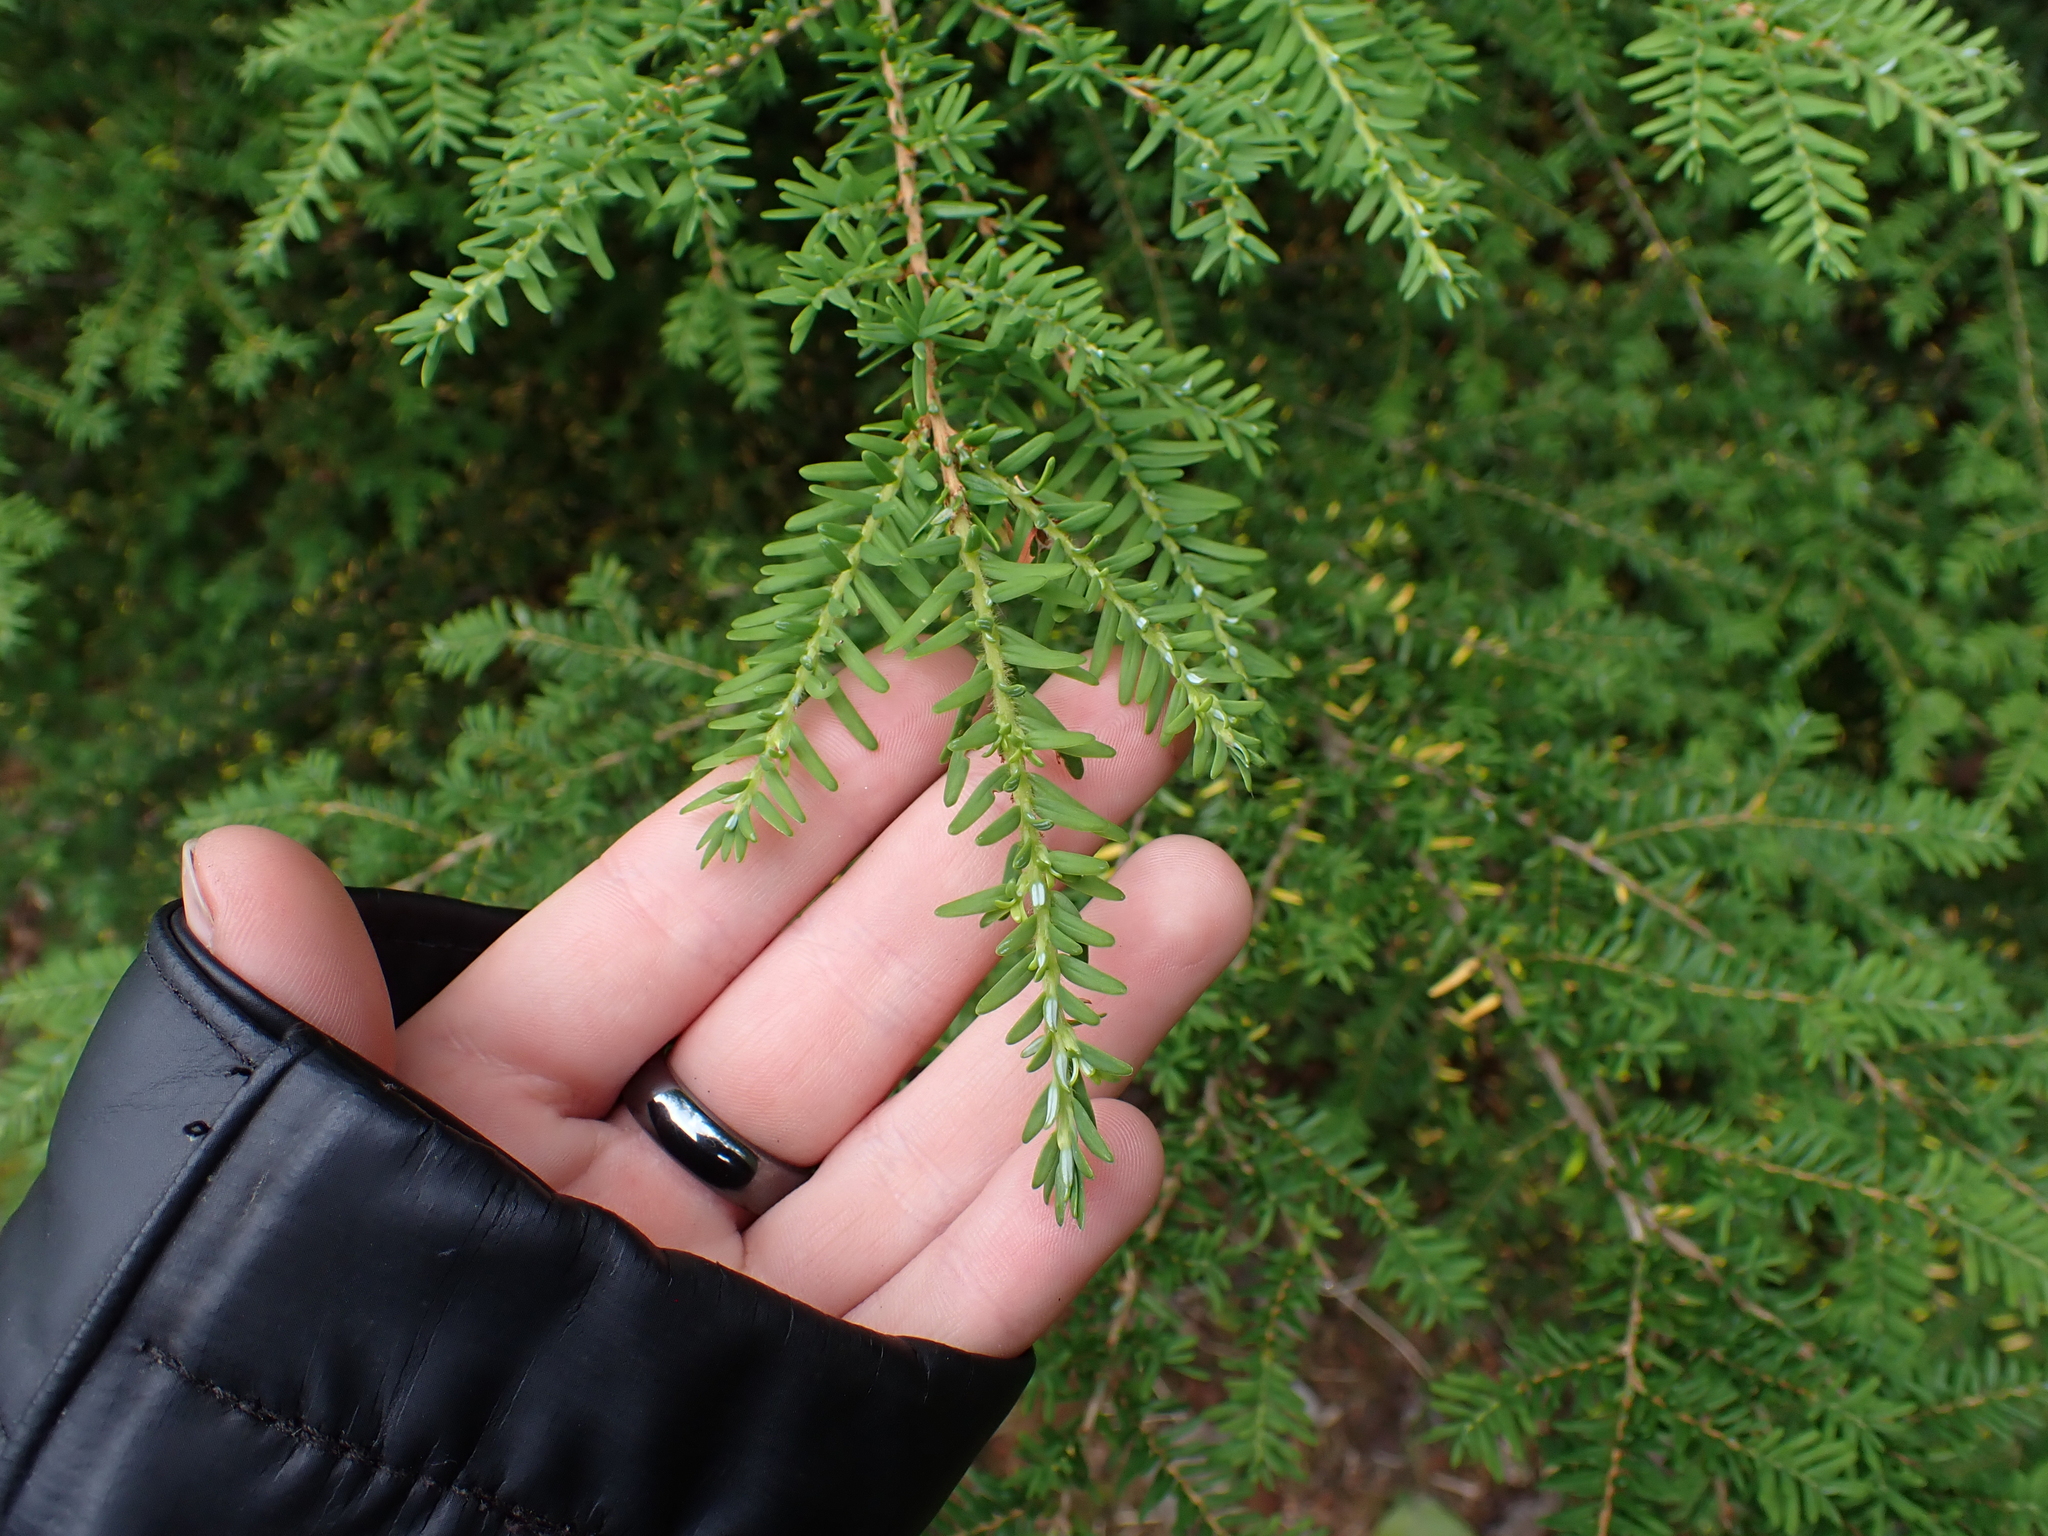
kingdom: Plantae
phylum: Tracheophyta
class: Pinopsida
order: Pinales
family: Pinaceae
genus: Tsuga
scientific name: Tsuga heterophylla
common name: Western hemlock
